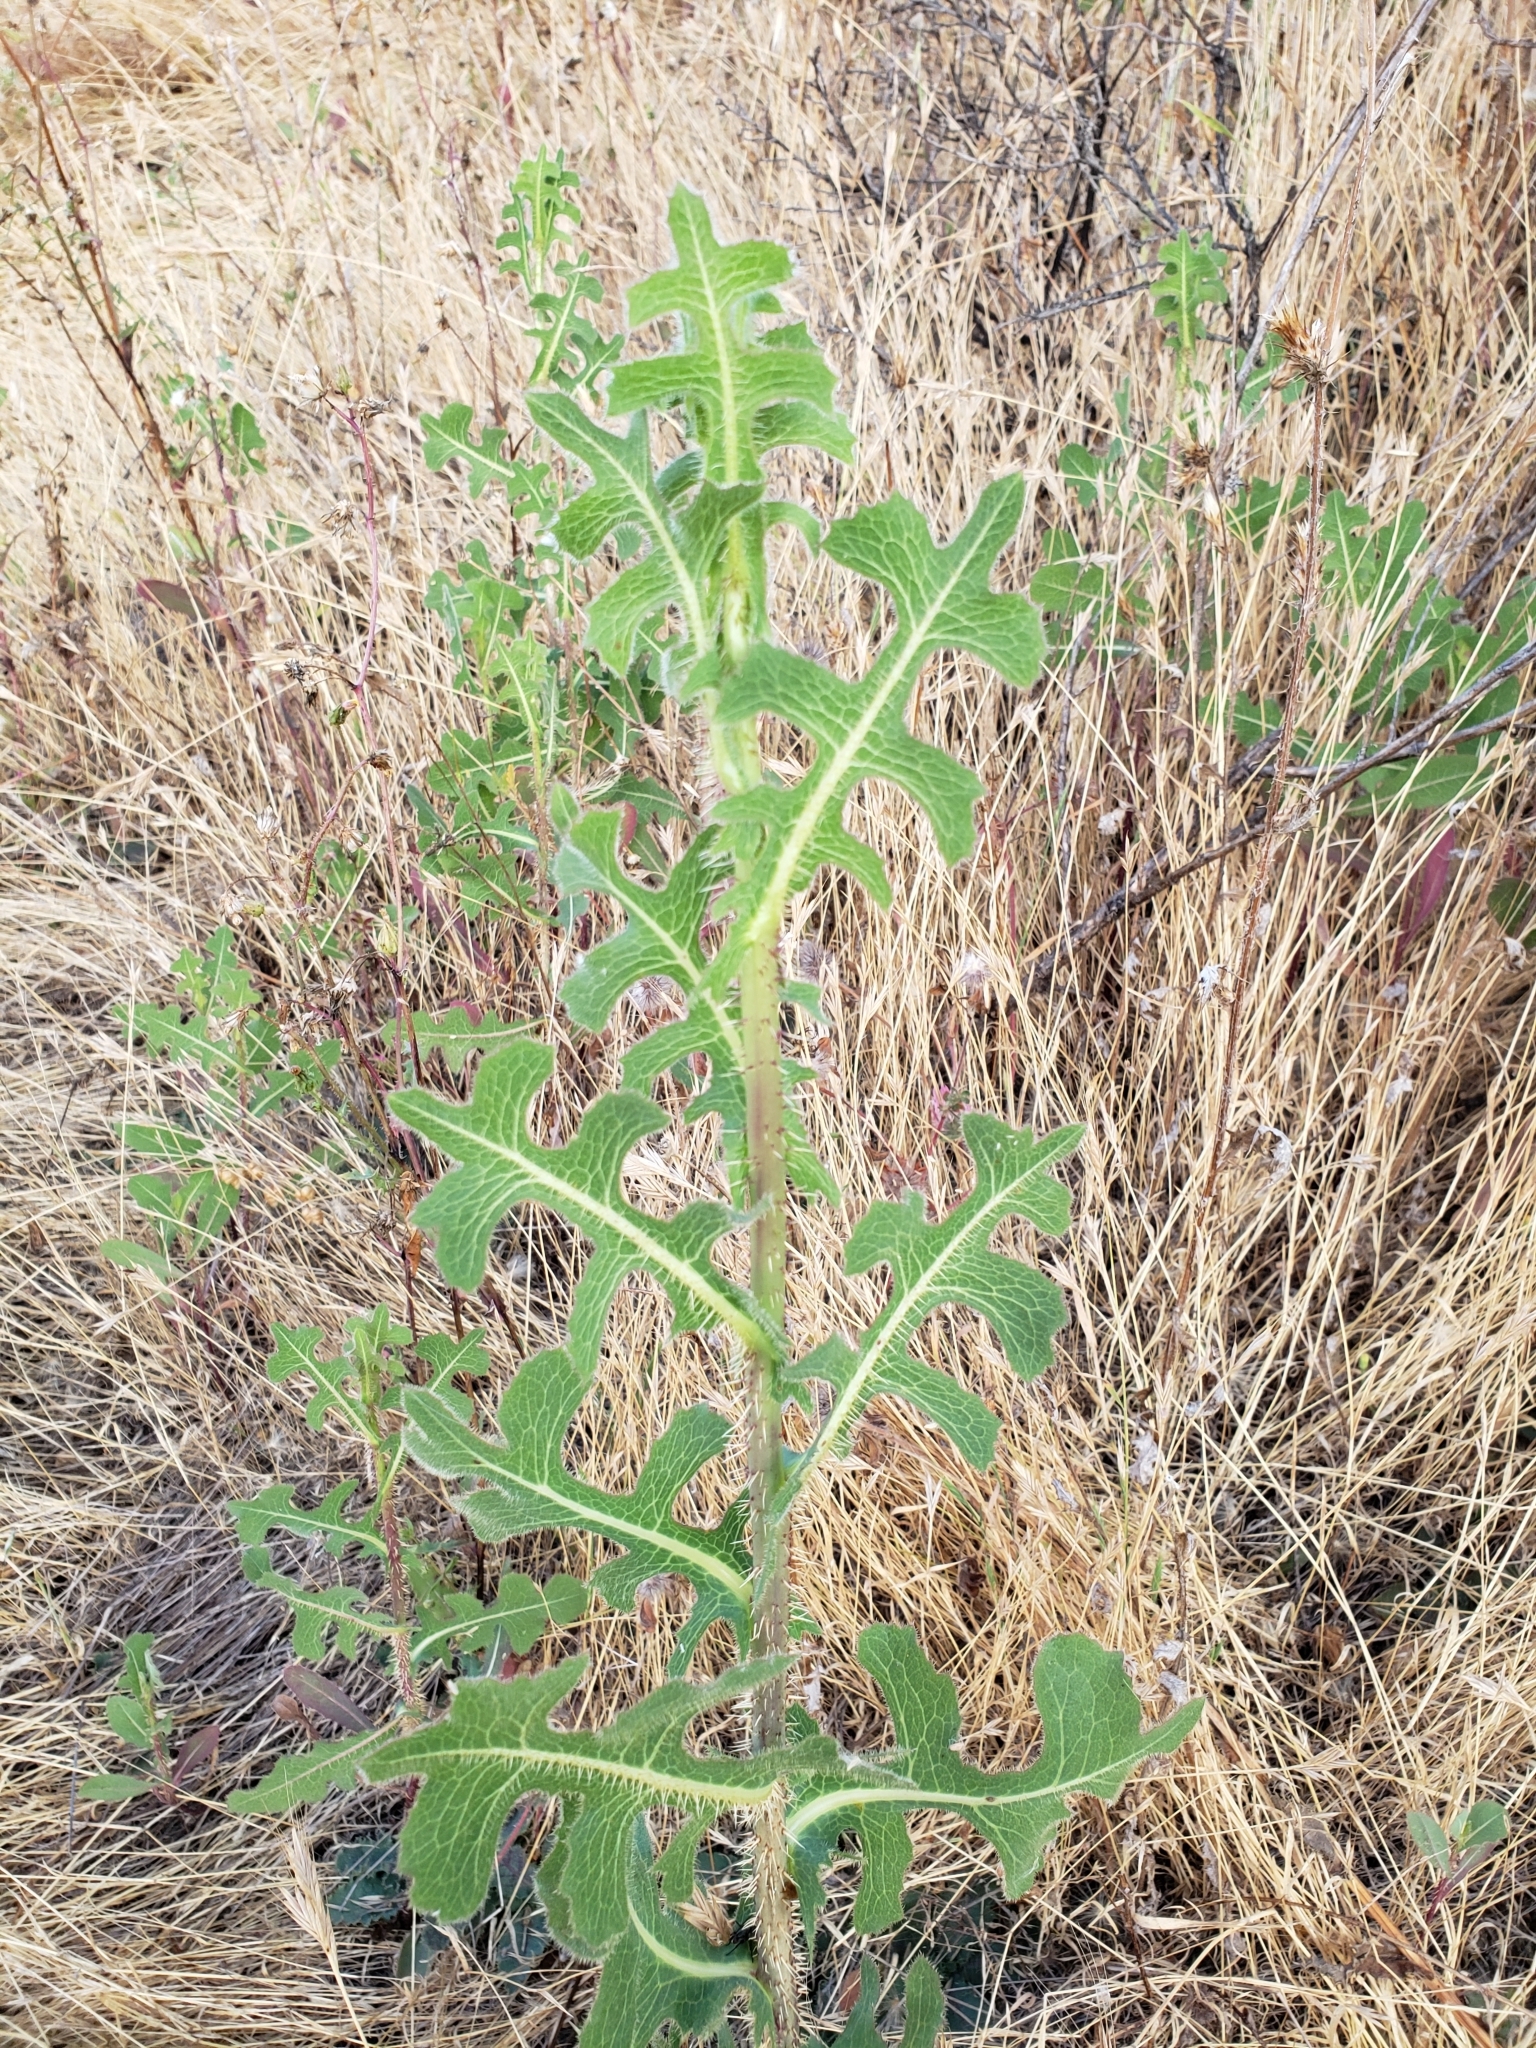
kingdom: Plantae
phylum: Tracheophyta
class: Magnoliopsida
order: Asterales
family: Asteraceae
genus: Lactuca
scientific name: Lactuca serriola
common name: Prickly lettuce
